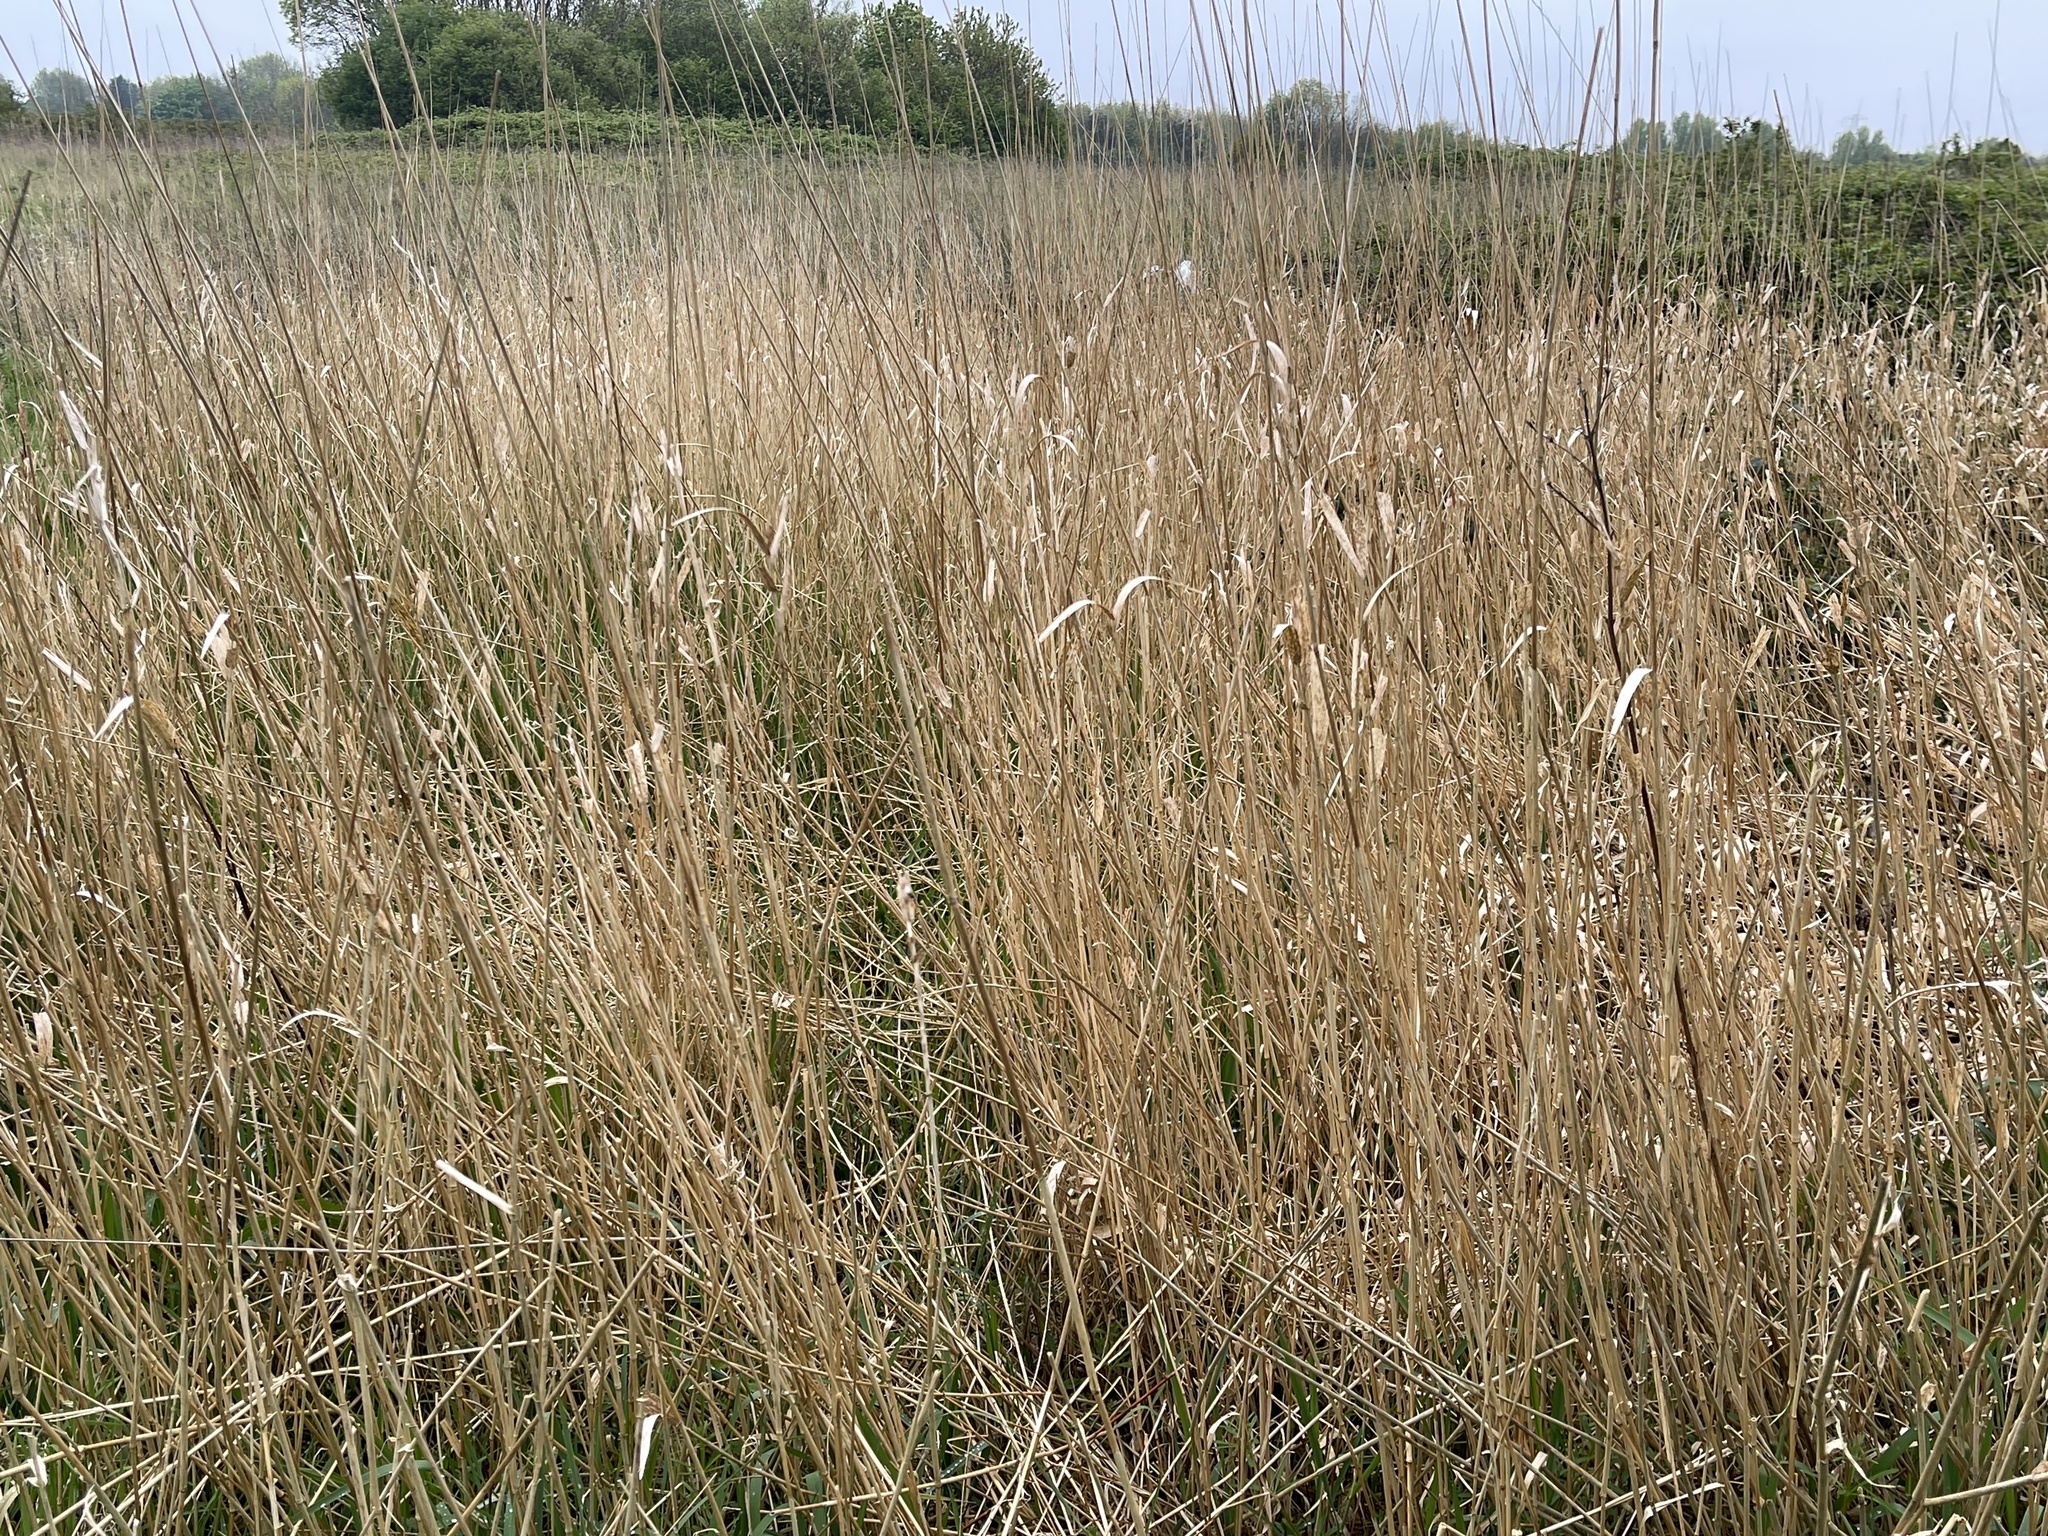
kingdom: Plantae
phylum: Tracheophyta
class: Liliopsida
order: Poales
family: Poaceae
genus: Phalaris
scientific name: Phalaris arundinacea
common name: Reed canary-grass
